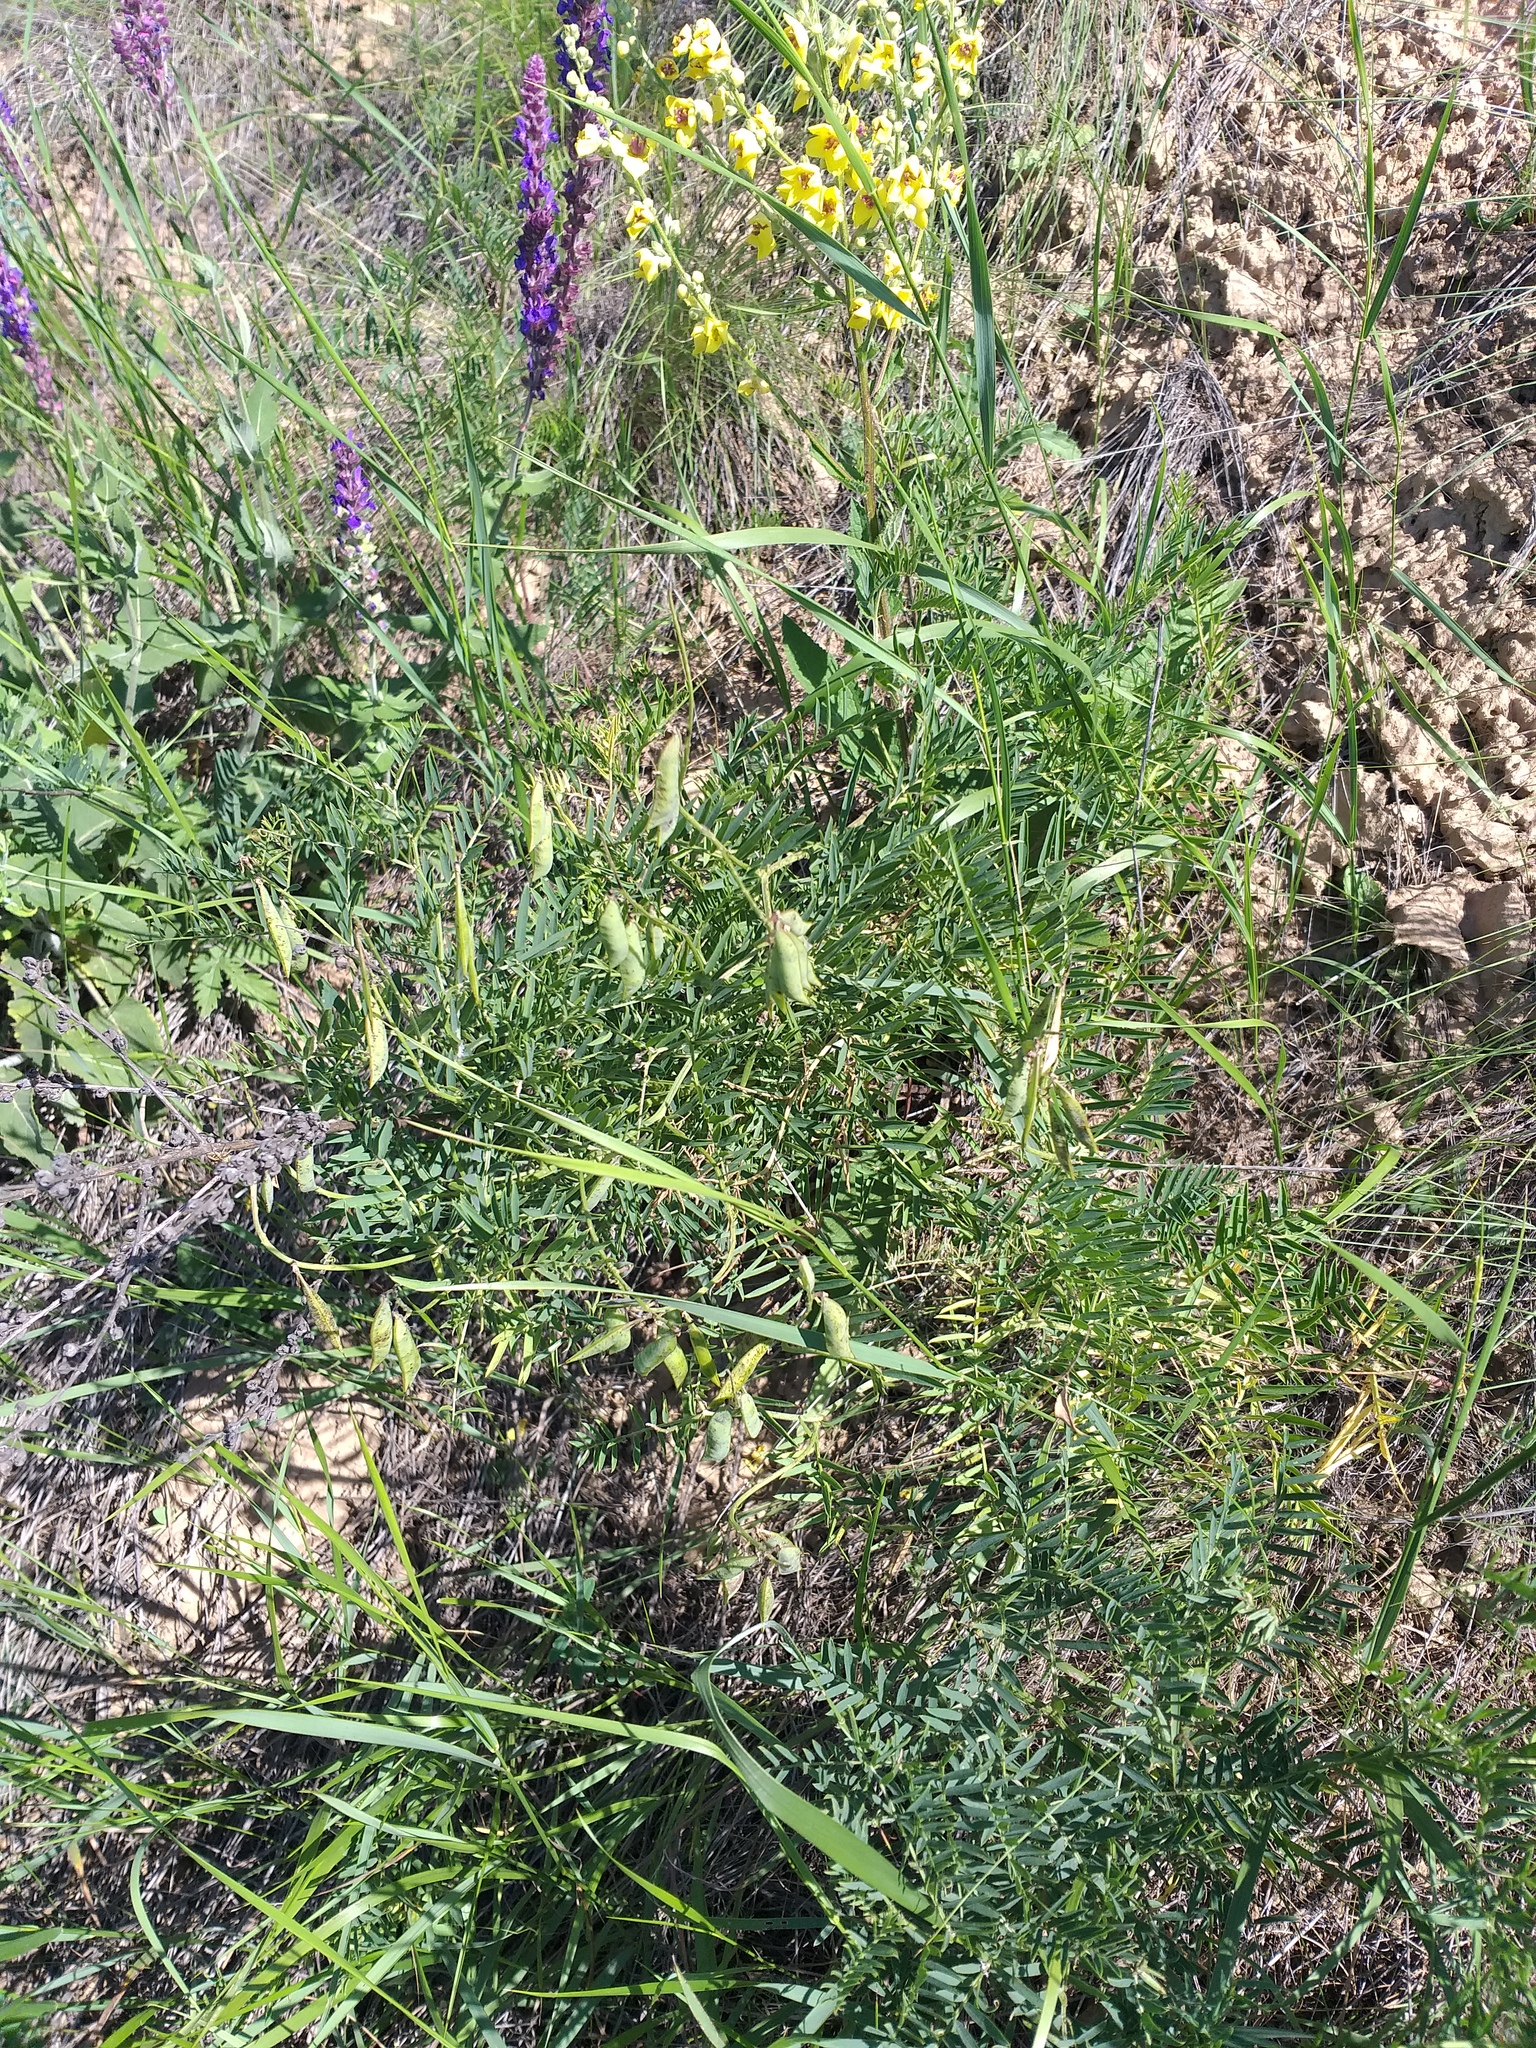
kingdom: Plantae
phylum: Tracheophyta
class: Magnoliopsida
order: Fabales
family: Fabaceae
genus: Vicia
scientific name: Vicia tenuifolia
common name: Fine-leaved vetch
